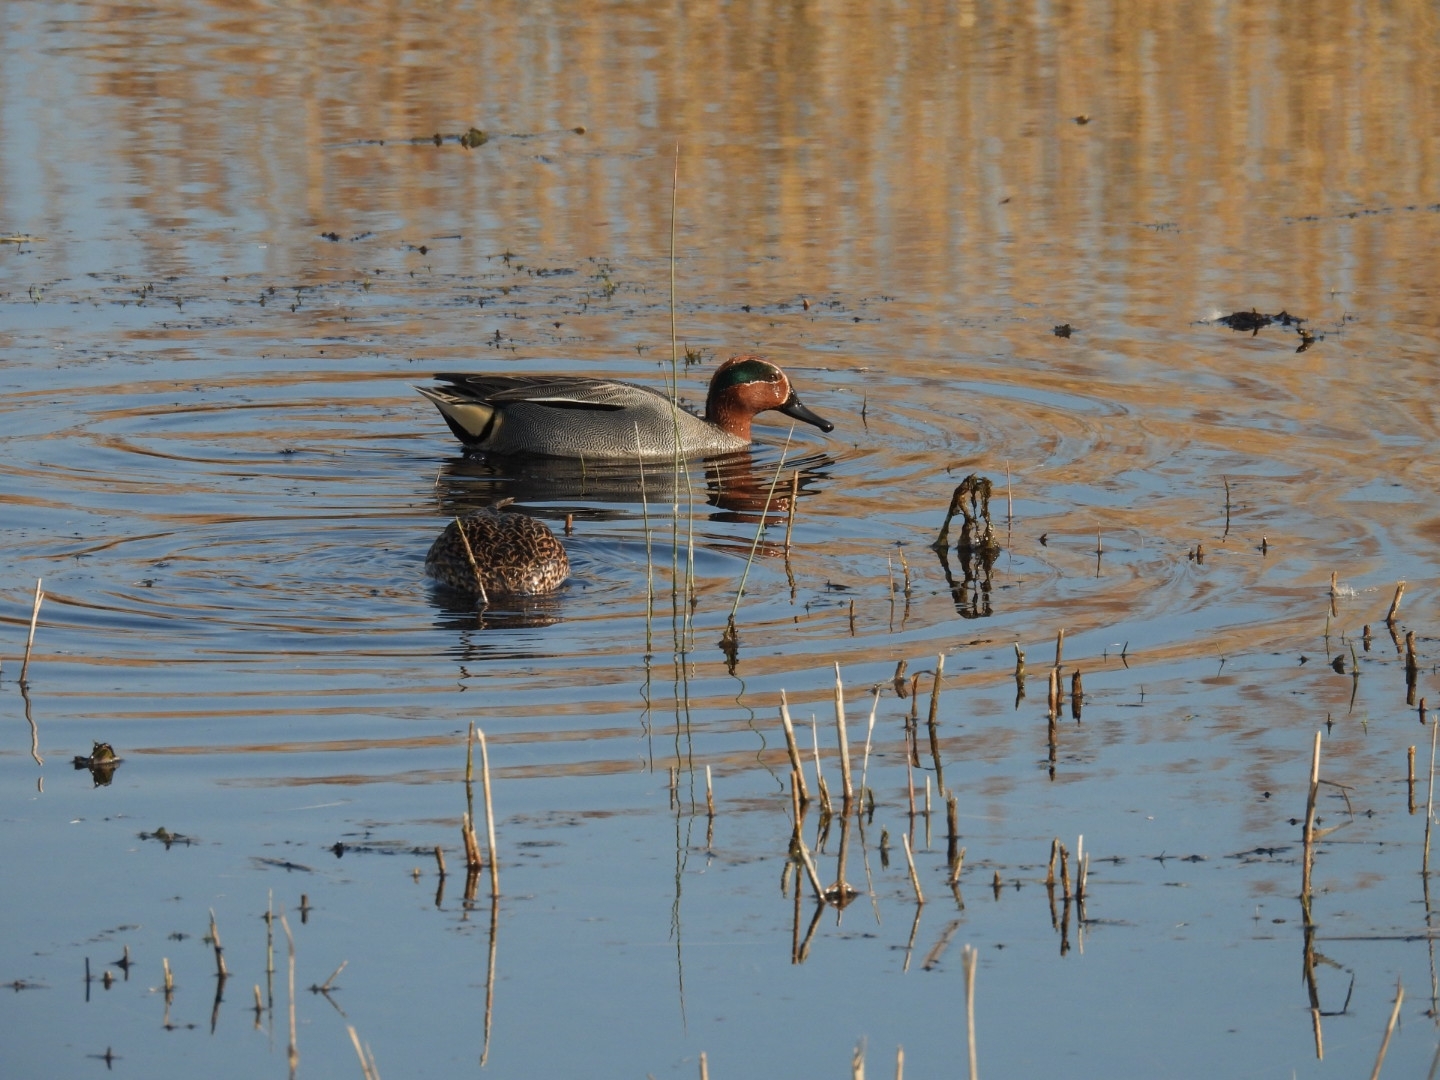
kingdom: Animalia
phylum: Chordata
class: Aves
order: Anseriformes
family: Anatidae
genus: Anas
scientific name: Anas crecca
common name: Eurasian teal
